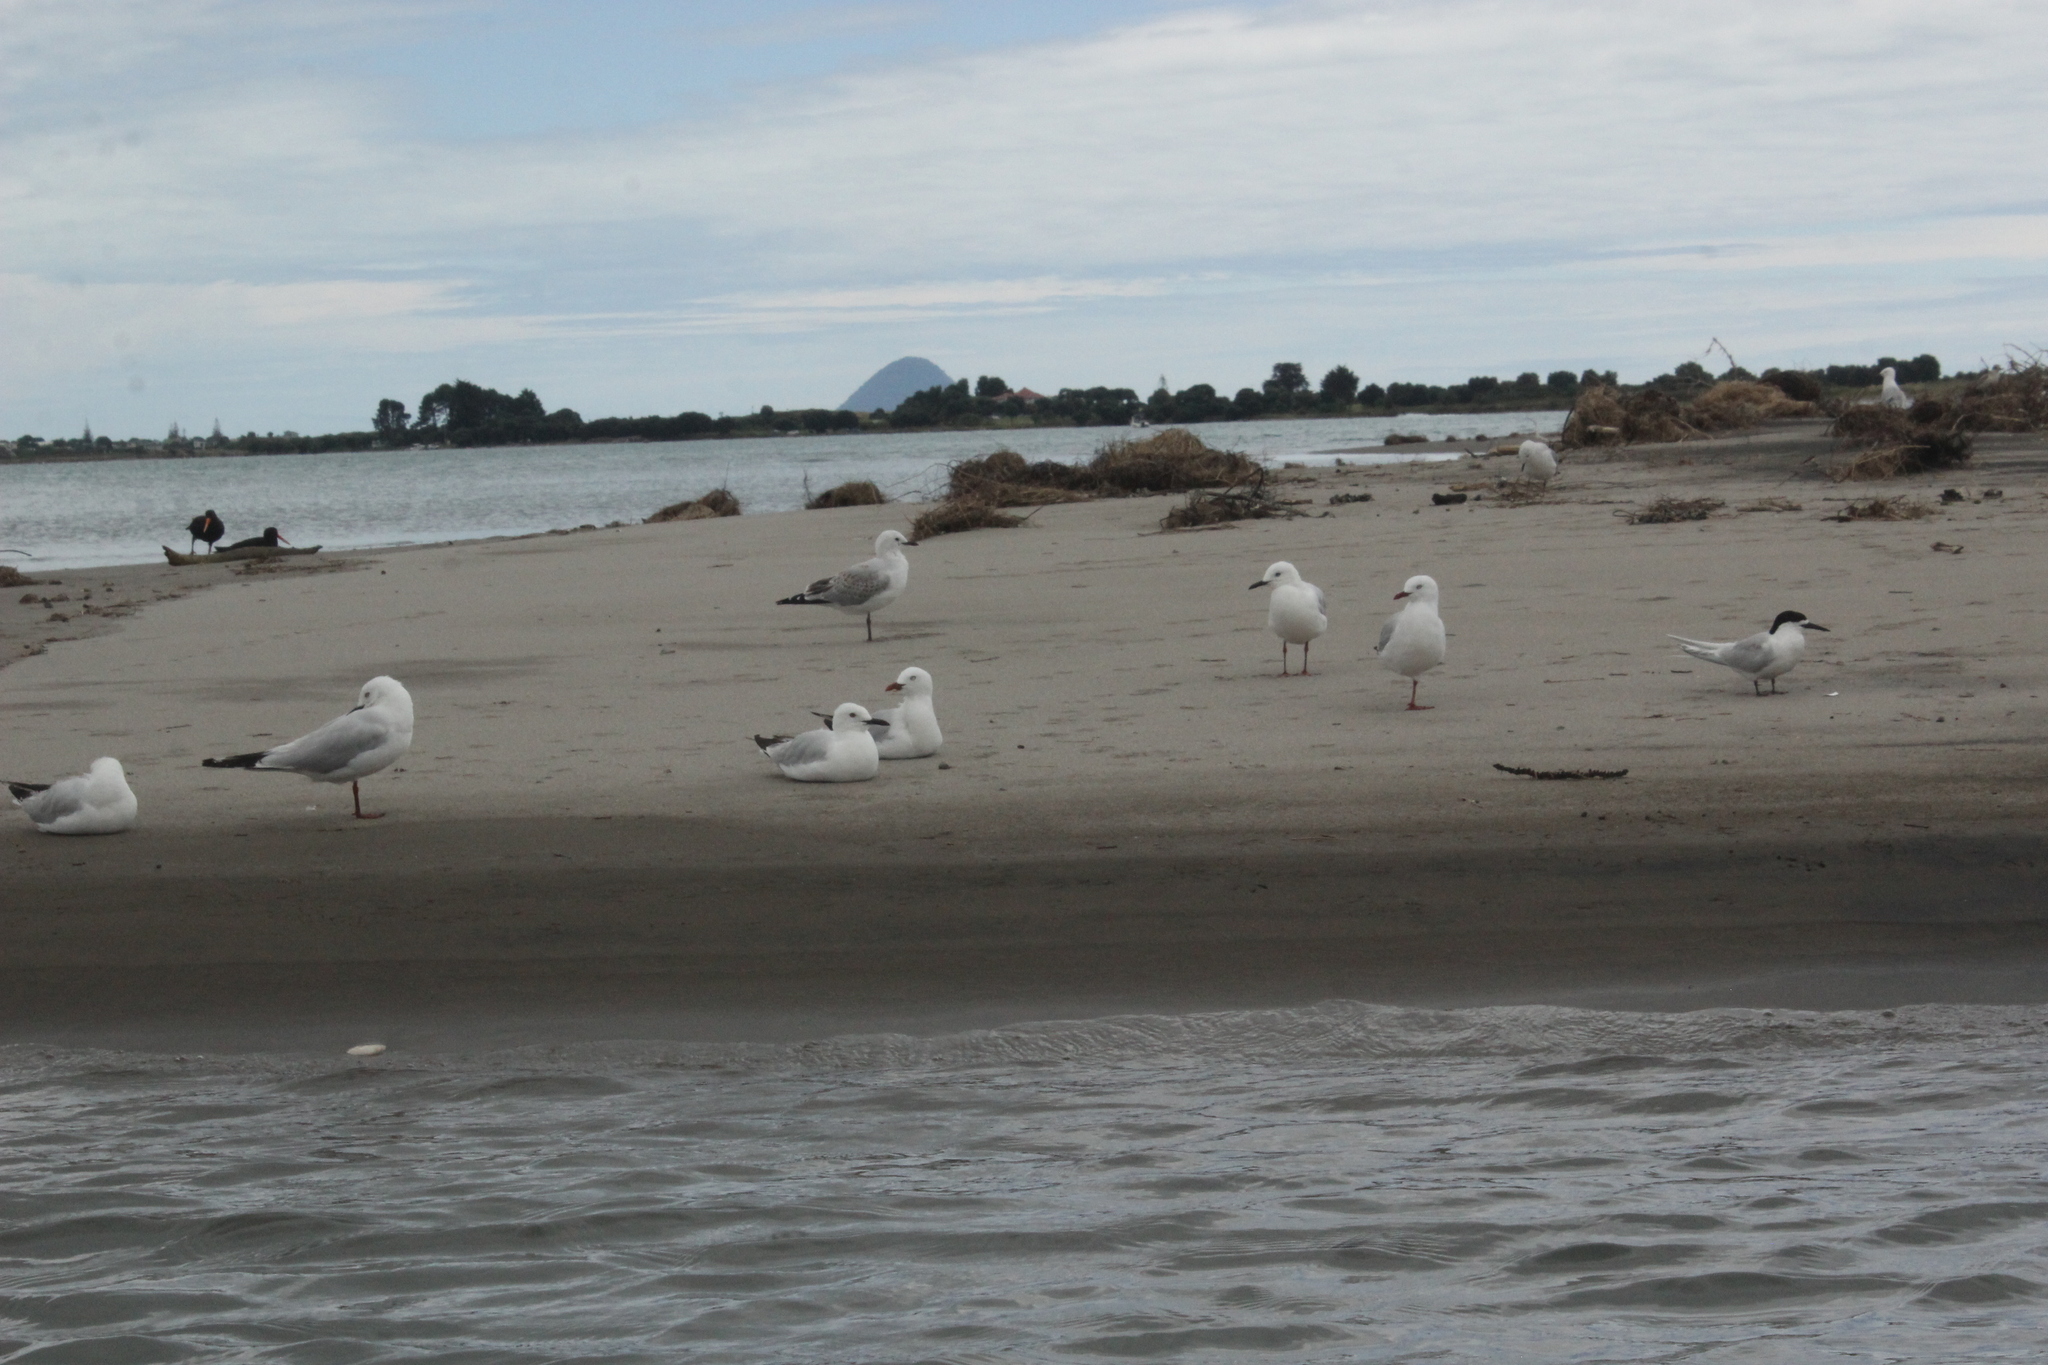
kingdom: Animalia
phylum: Chordata
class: Aves
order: Charadriiformes
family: Laridae
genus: Chroicocephalus
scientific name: Chroicocephalus novaehollandiae
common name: Silver gull
